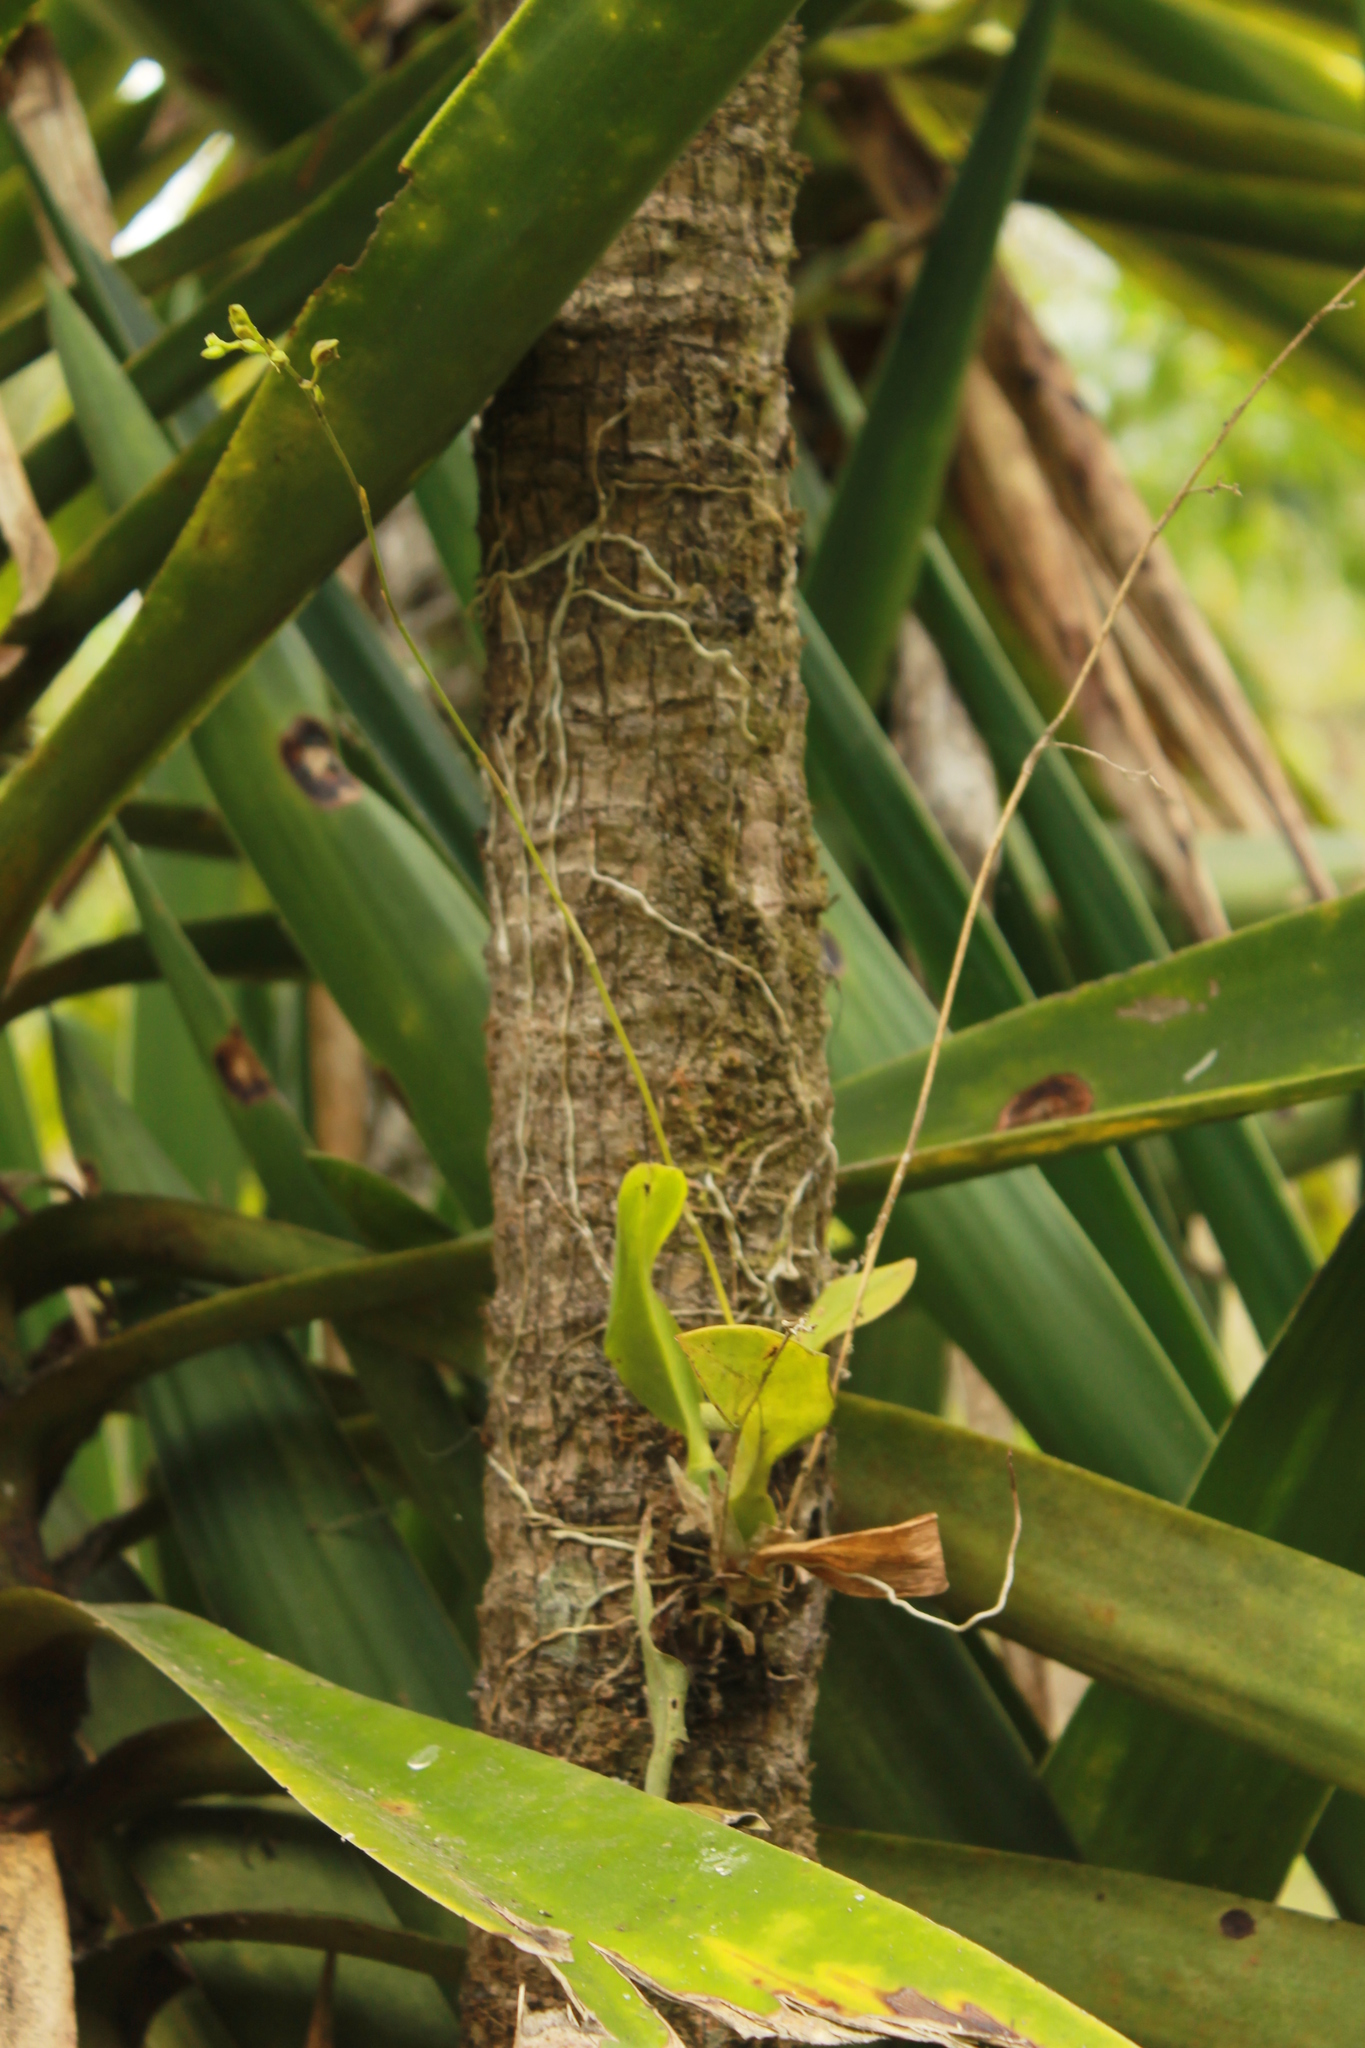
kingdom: Plantae
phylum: Tracheophyta
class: Liliopsida
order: Asparagales
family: Orchidaceae
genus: Leochilus
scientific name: Leochilus carinatus
